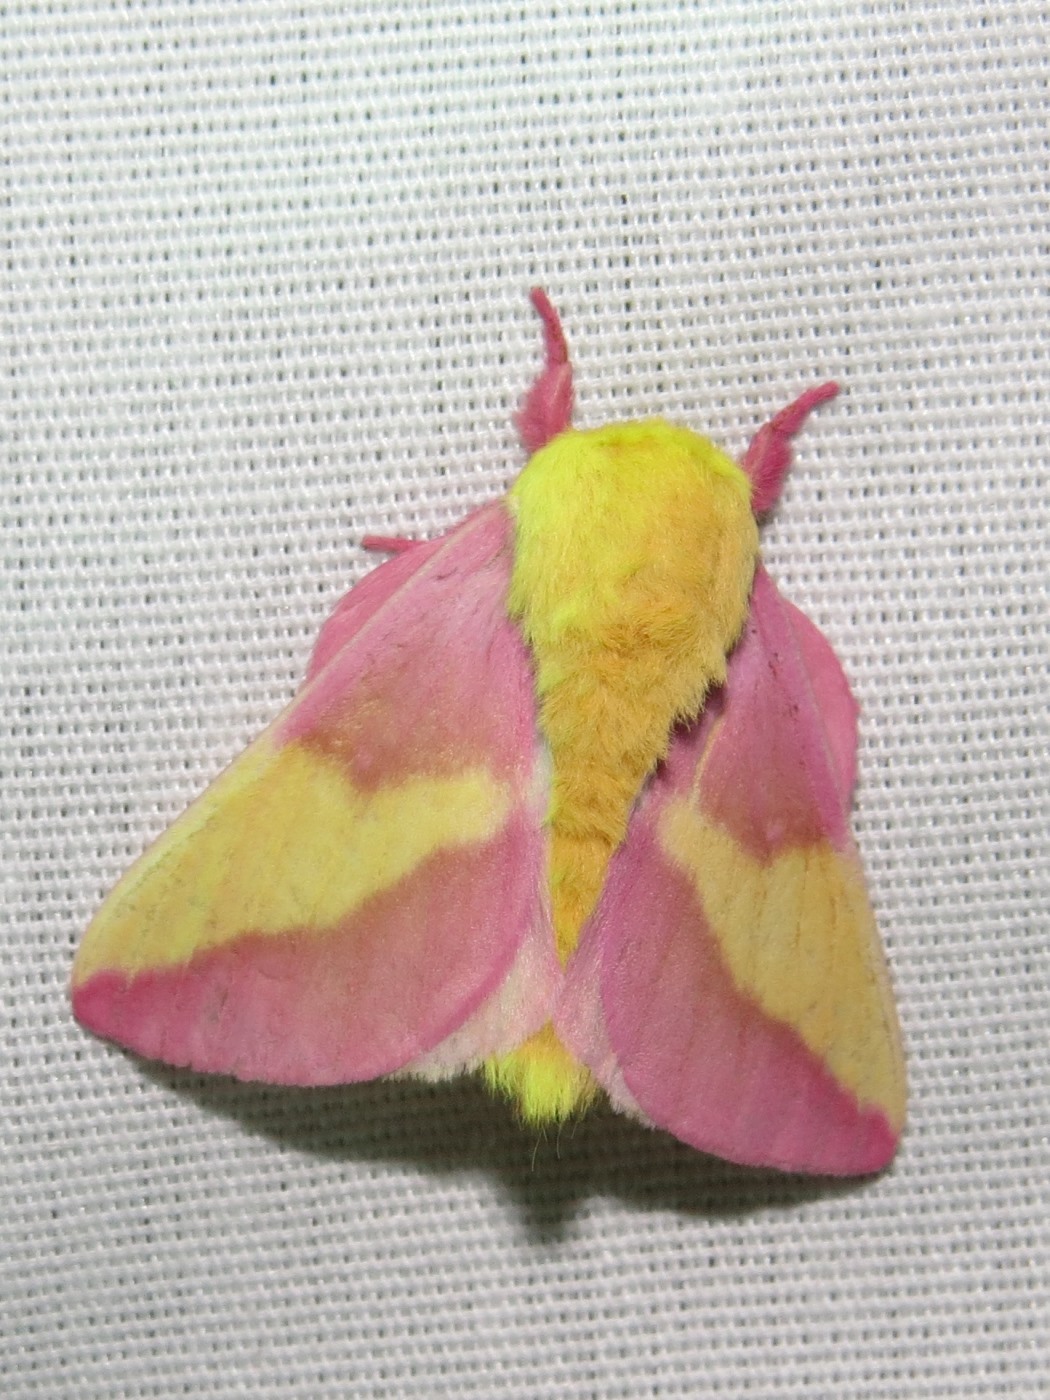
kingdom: Animalia
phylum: Arthropoda
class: Insecta
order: Lepidoptera
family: Saturniidae
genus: Dryocampa
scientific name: Dryocampa rubicunda
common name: Rosy maple moth
